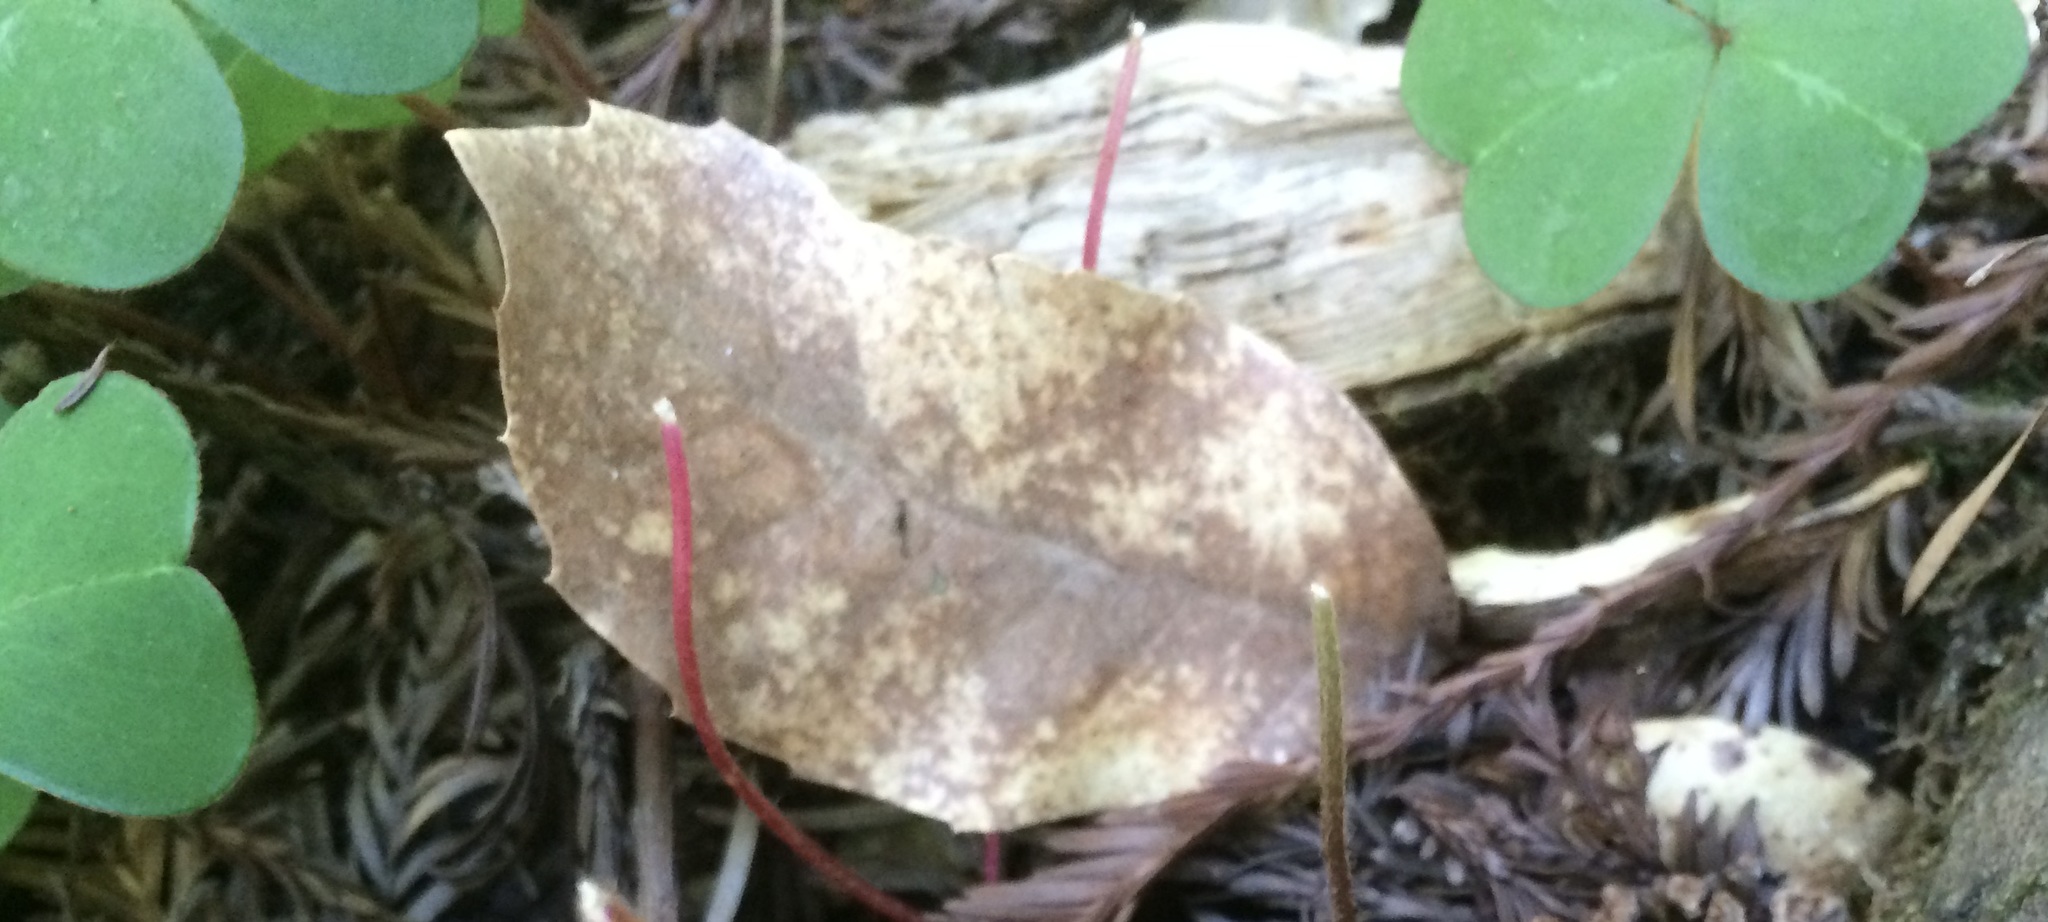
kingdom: Plantae
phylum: Tracheophyta
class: Magnoliopsida
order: Oxalidales
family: Oxalidaceae
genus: Oxalis
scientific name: Oxalis oregana
